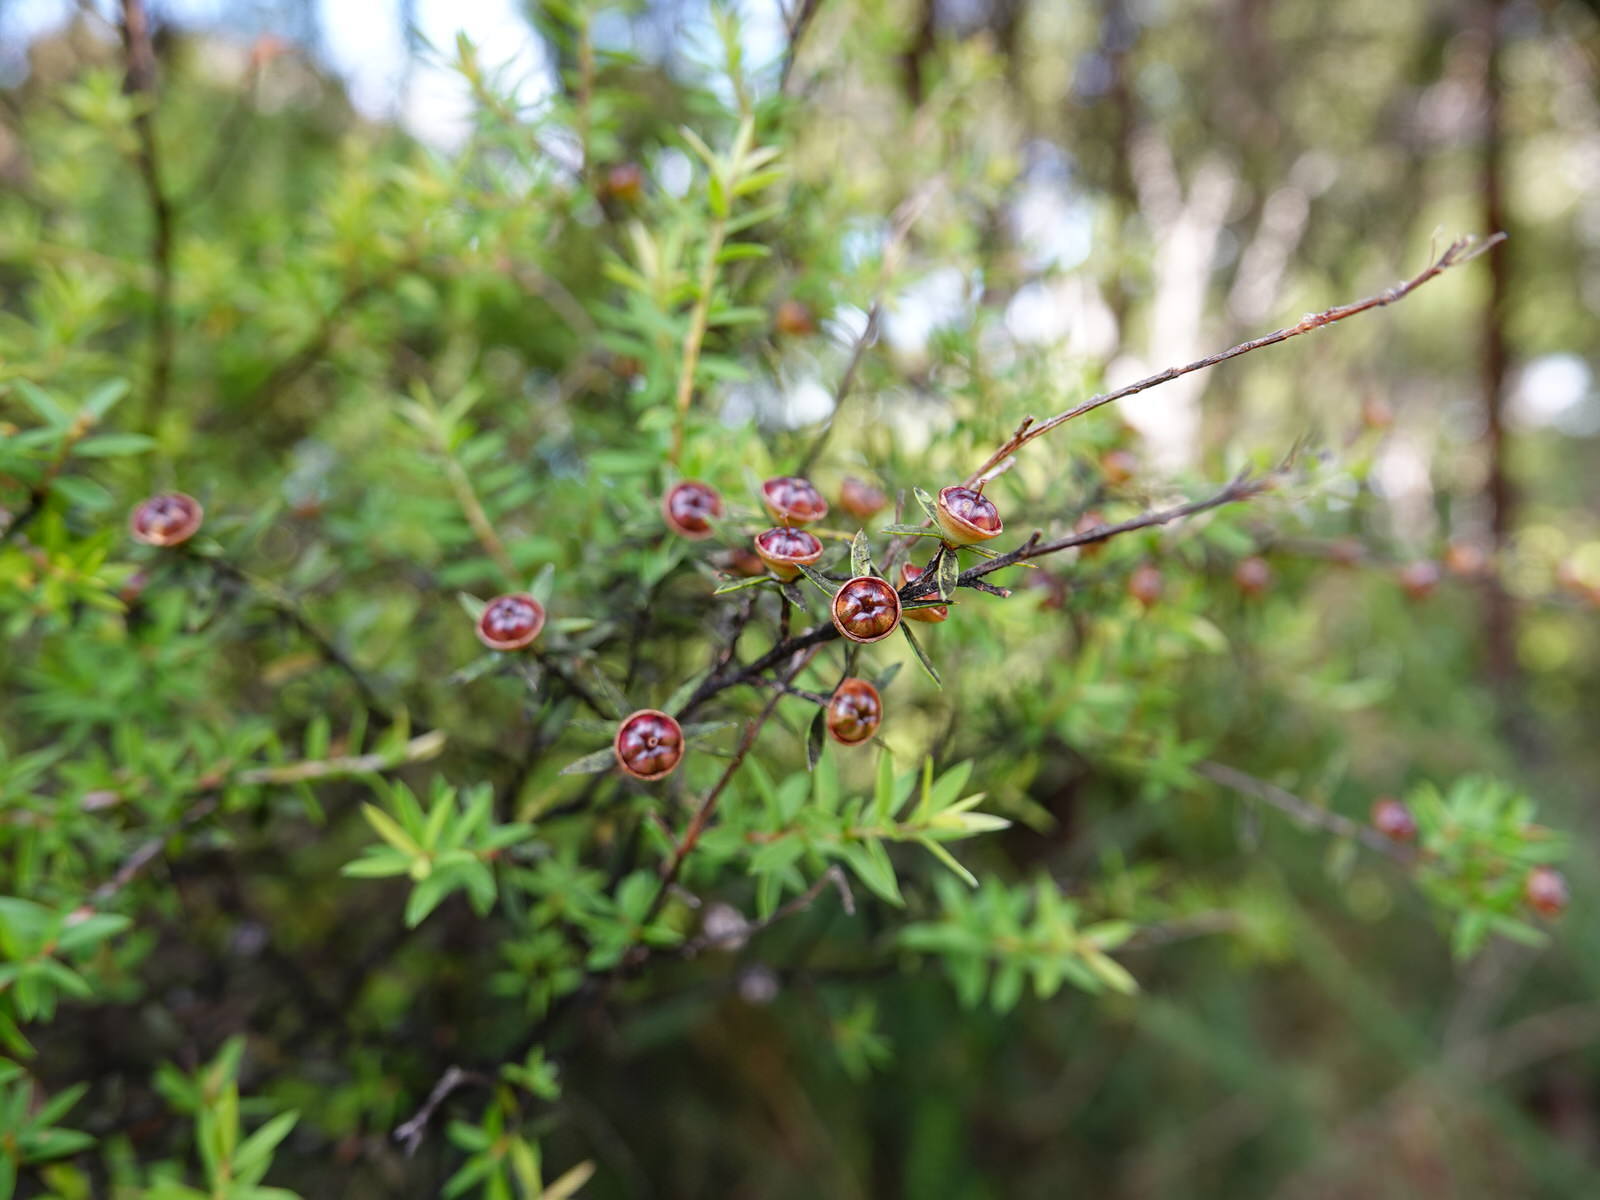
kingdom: Plantae
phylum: Tracheophyta
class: Magnoliopsida
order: Myrtales
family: Myrtaceae
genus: Leptospermum
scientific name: Leptospermum scoparium
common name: Broom tea-tree
